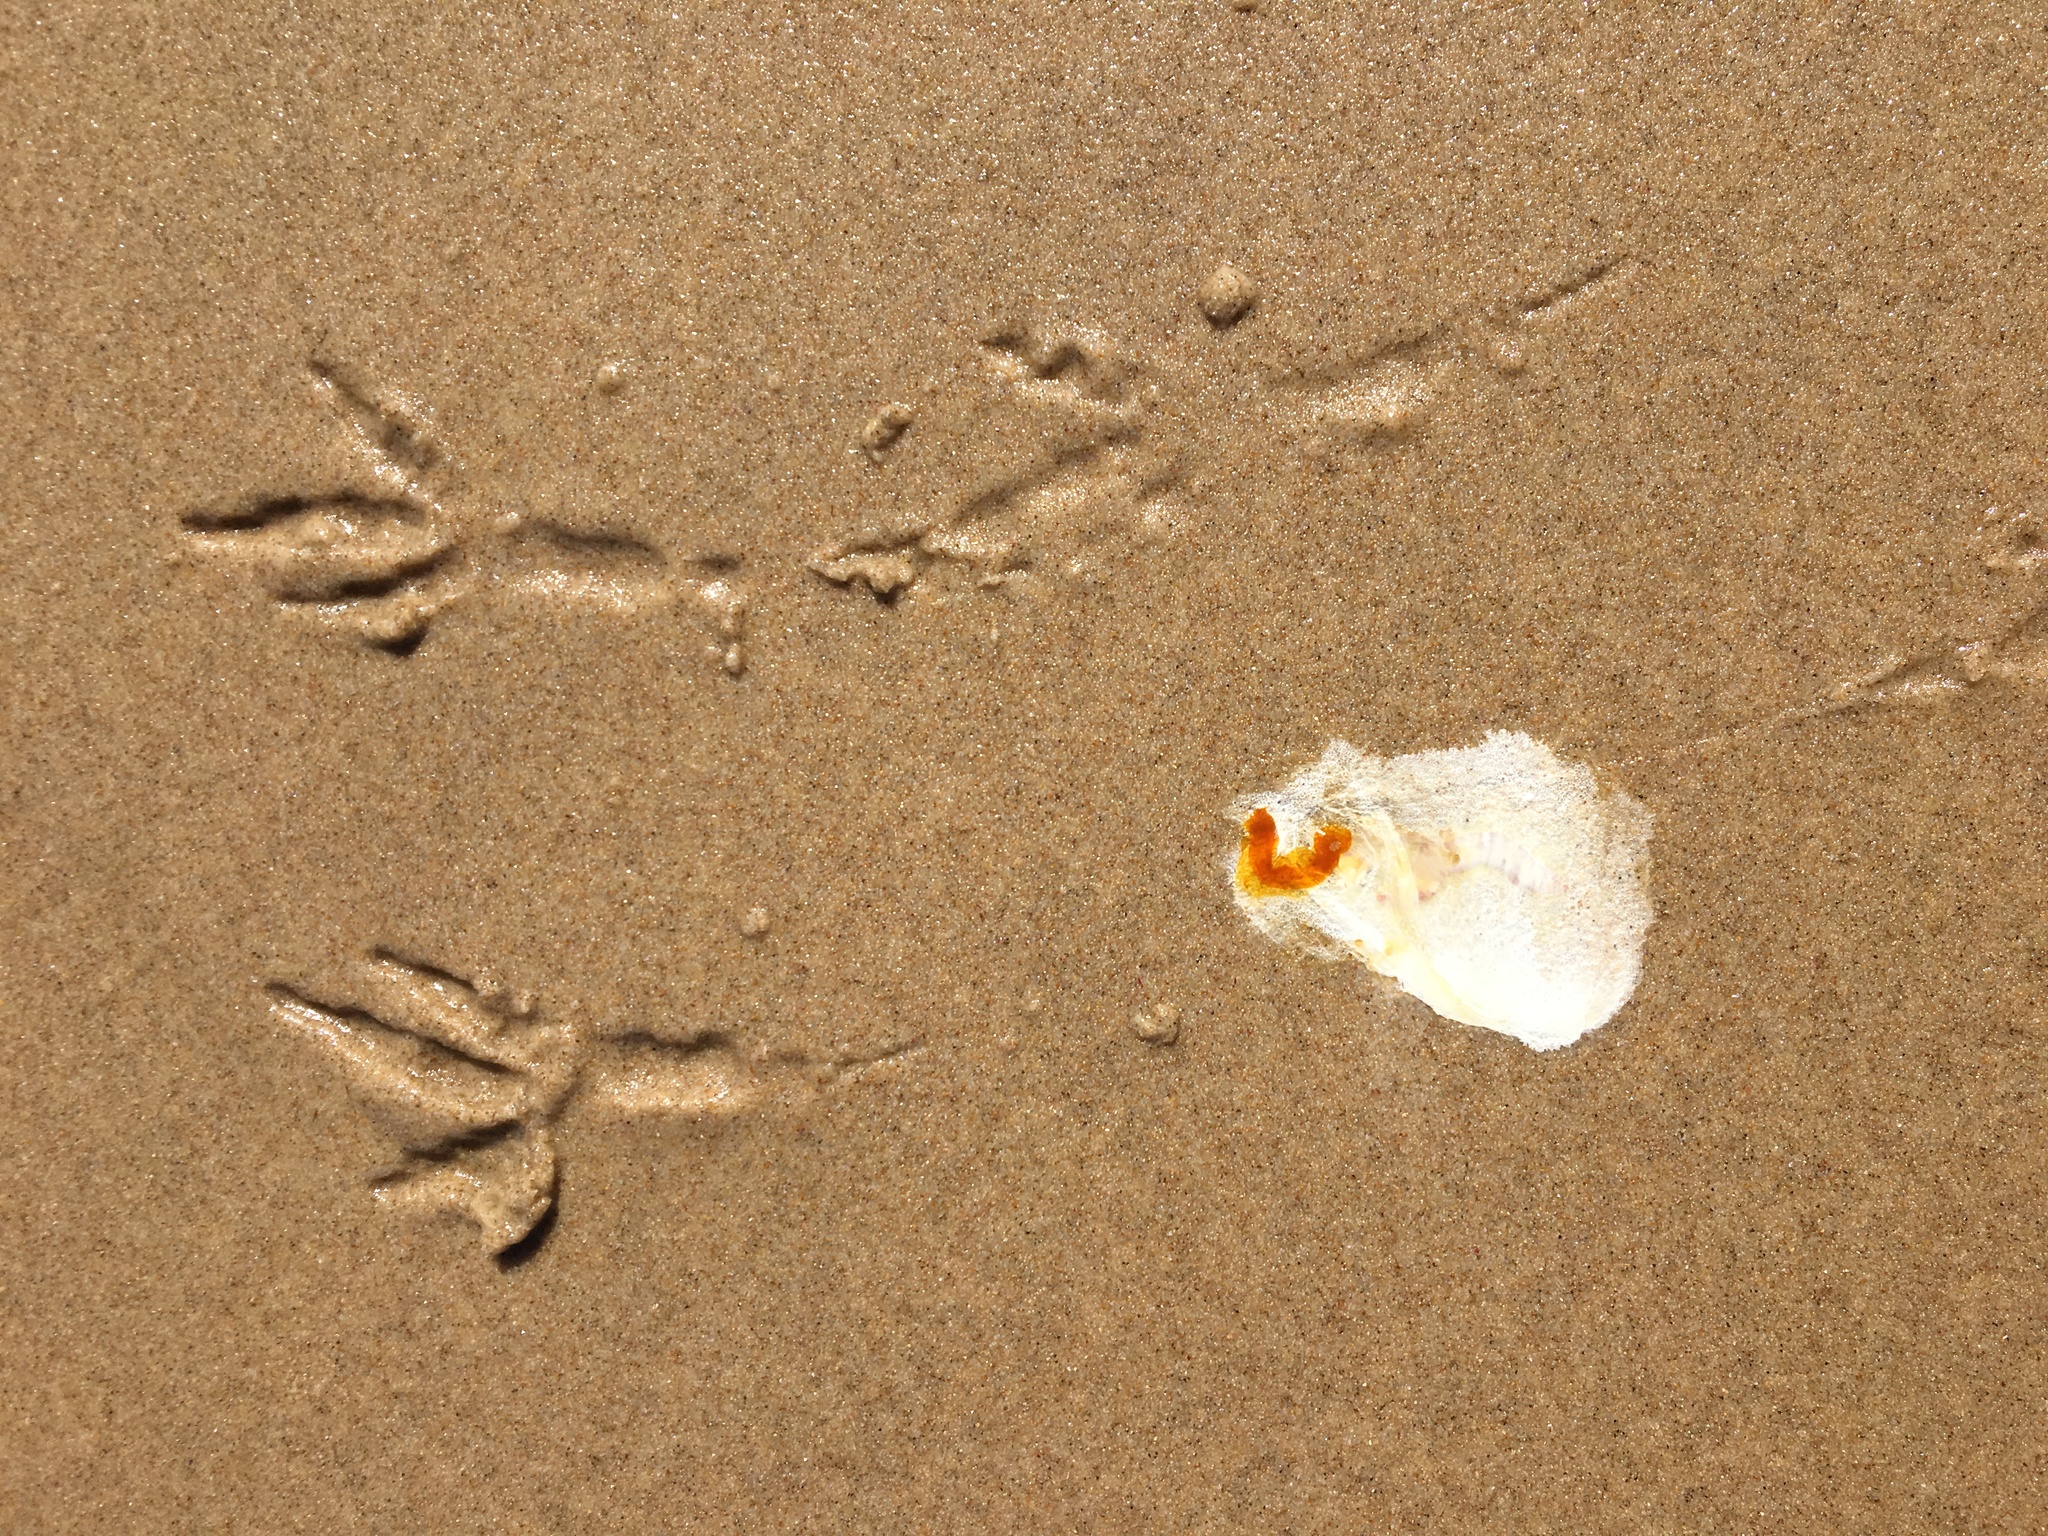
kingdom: Animalia
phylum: Chordata
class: Aves
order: Charadriiformes
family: Laridae
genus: Chroicocephalus
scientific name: Chroicocephalus novaehollandiae
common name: Silver gull
